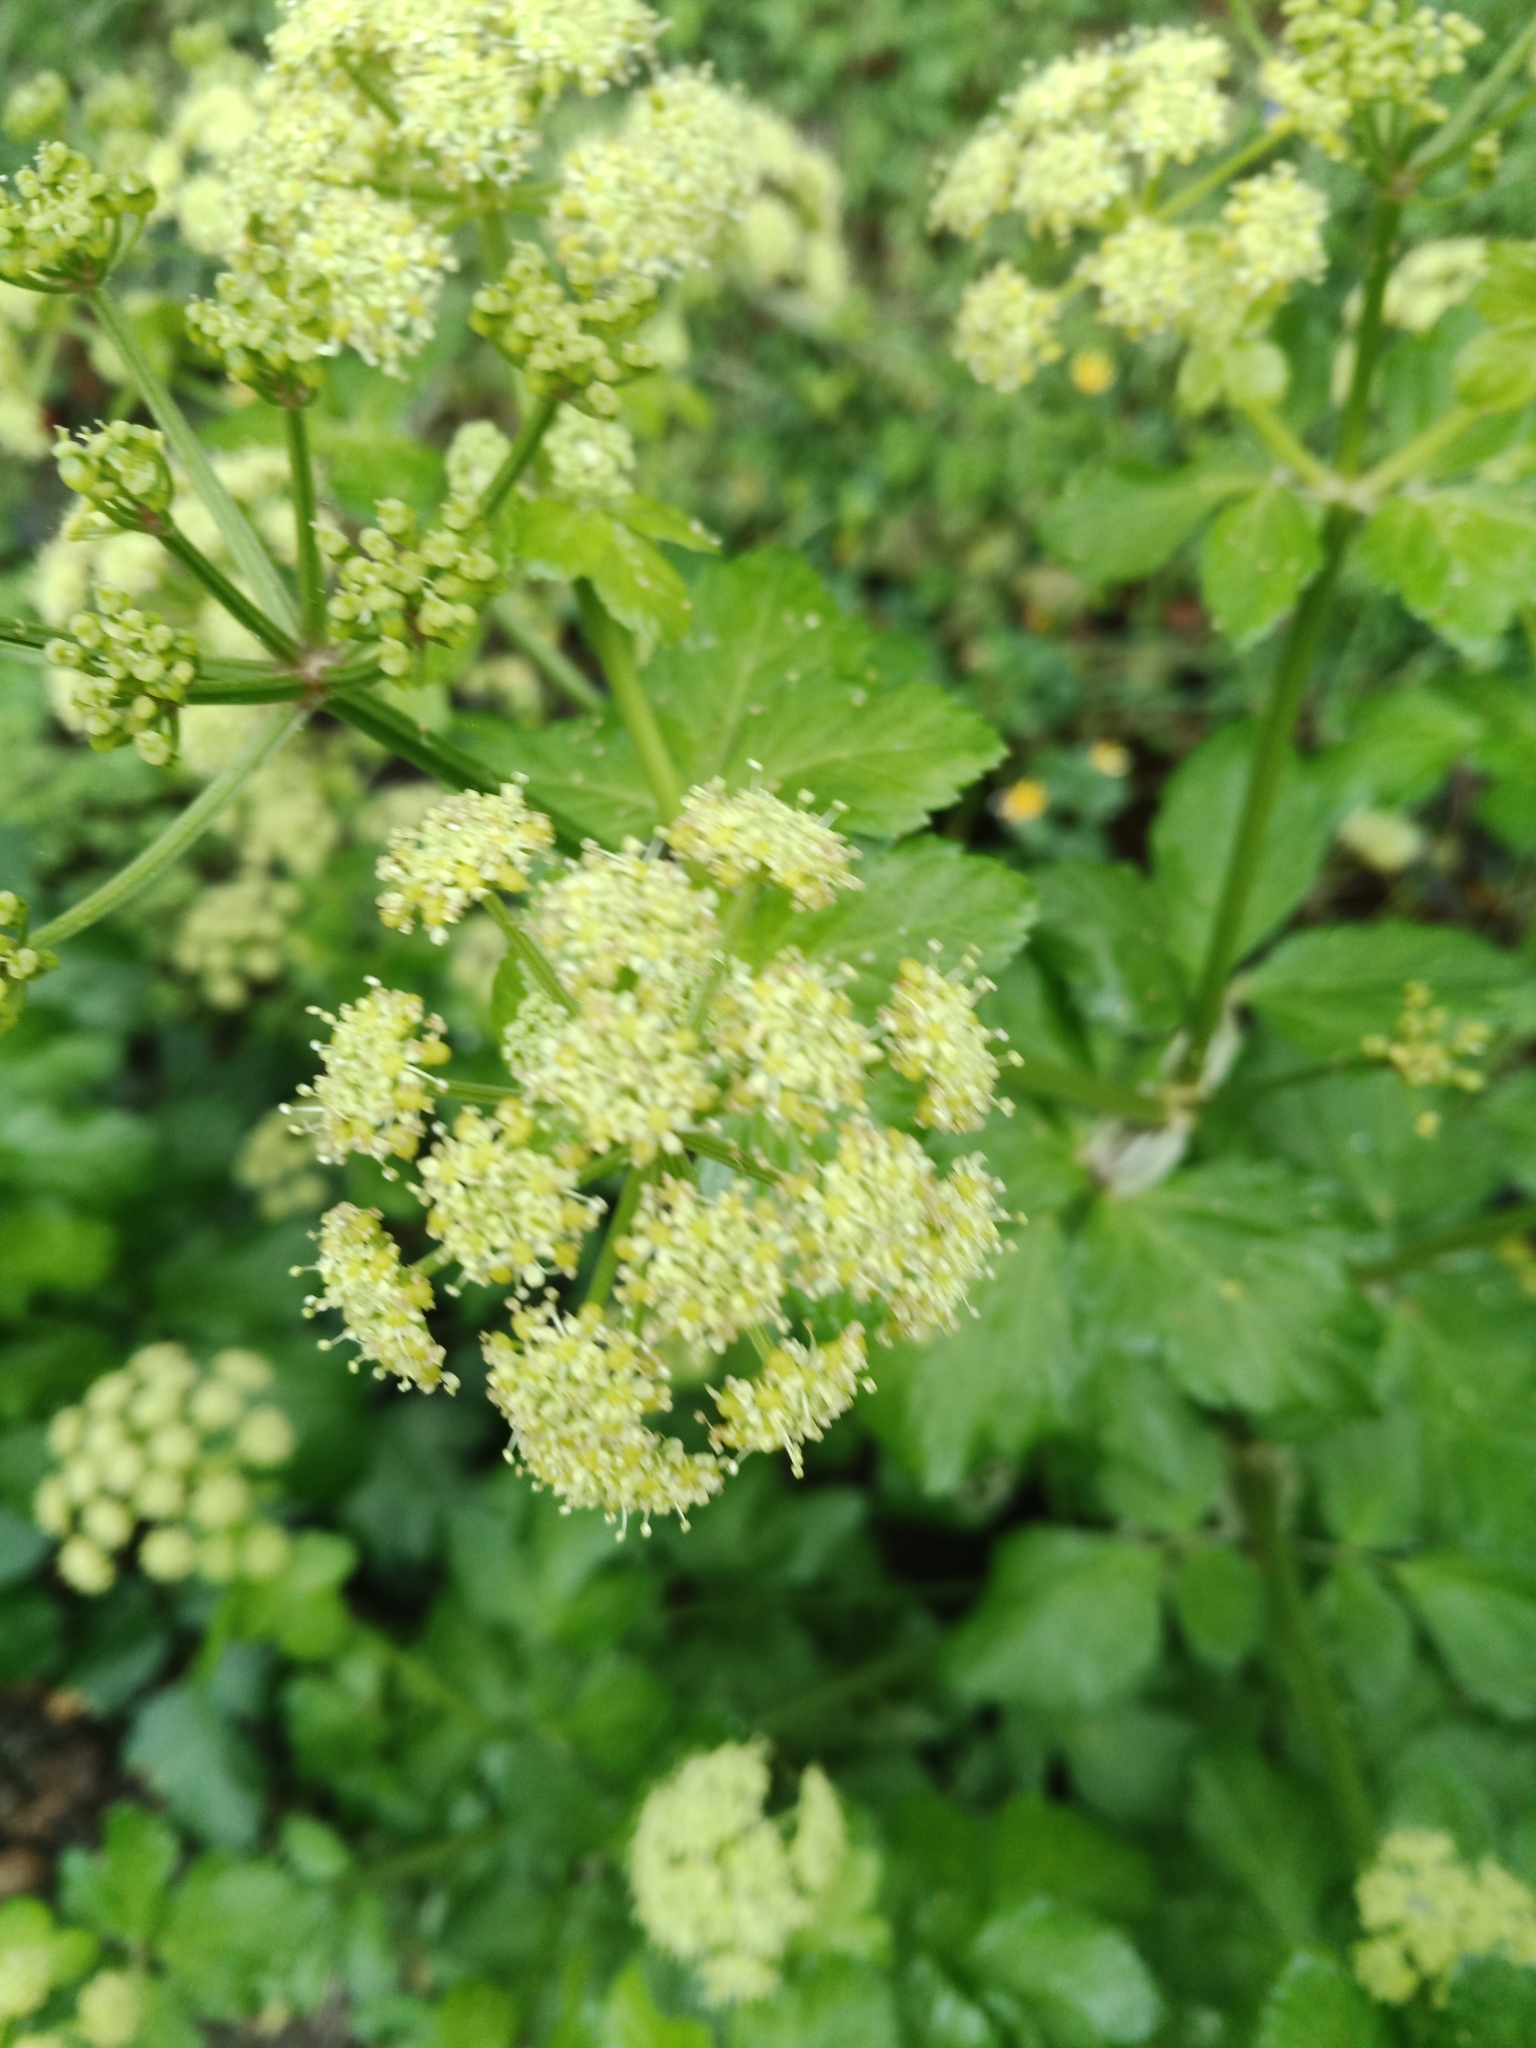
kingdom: Plantae
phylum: Tracheophyta
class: Magnoliopsida
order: Apiales
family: Apiaceae
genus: Smyrnium
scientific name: Smyrnium olusatrum
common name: Alexanders
